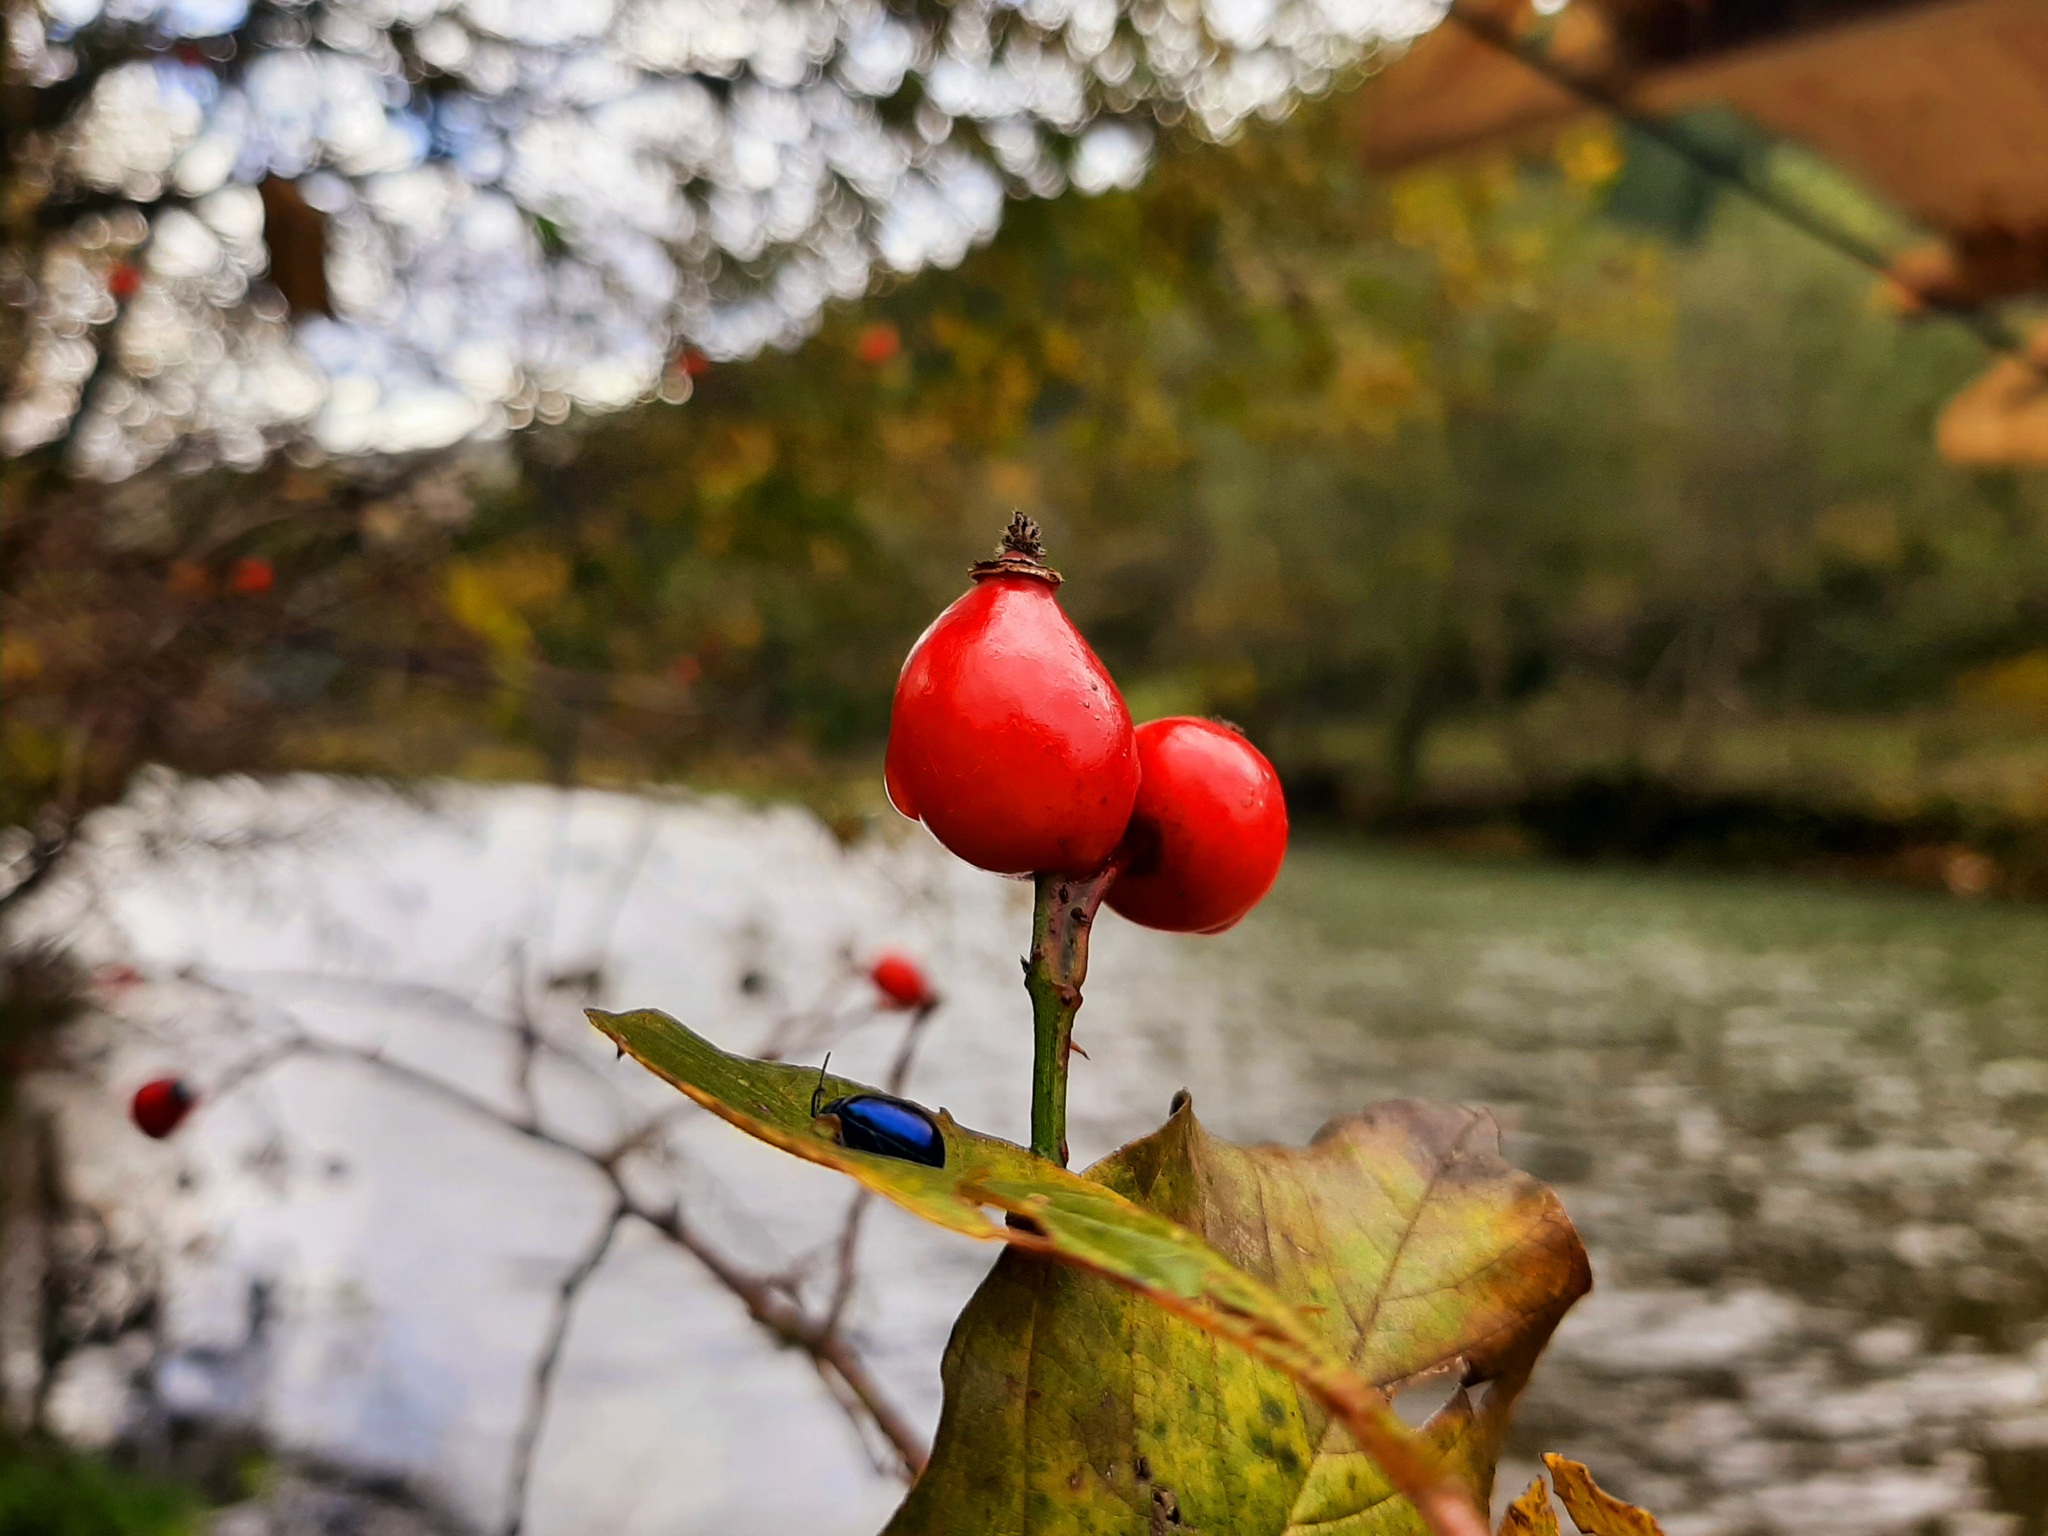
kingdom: Animalia
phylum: Arthropoda
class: Insecta
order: Coleoptera
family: Chrysomelidae
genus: Agelastica
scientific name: Agelastica alni
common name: Alder leaf beetle
